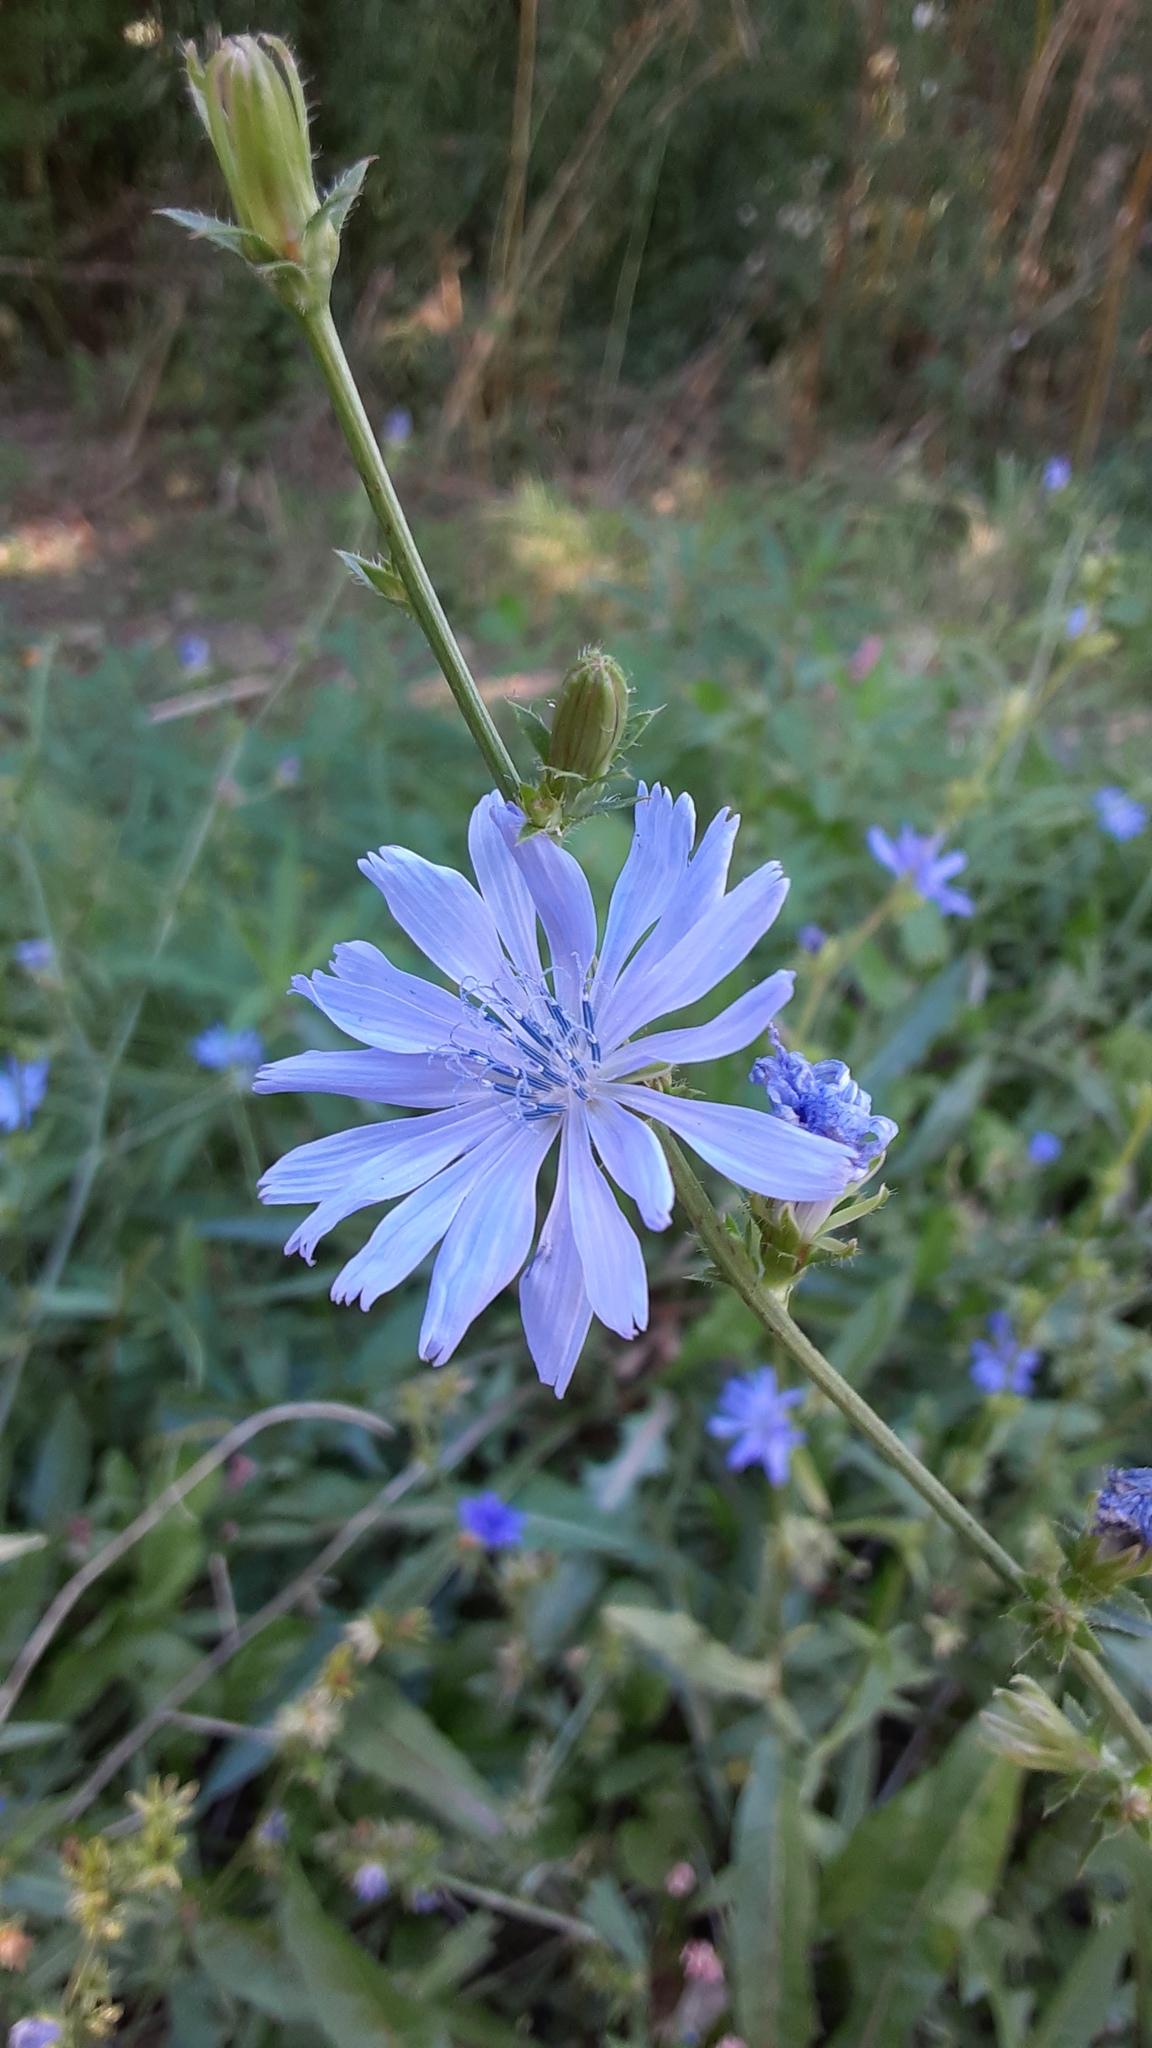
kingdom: Plantae
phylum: Tracheophyta
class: Magnoliopsida
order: Asterales
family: Asteraceae
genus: Cichorium
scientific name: Cichorium intybus
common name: Chicory
